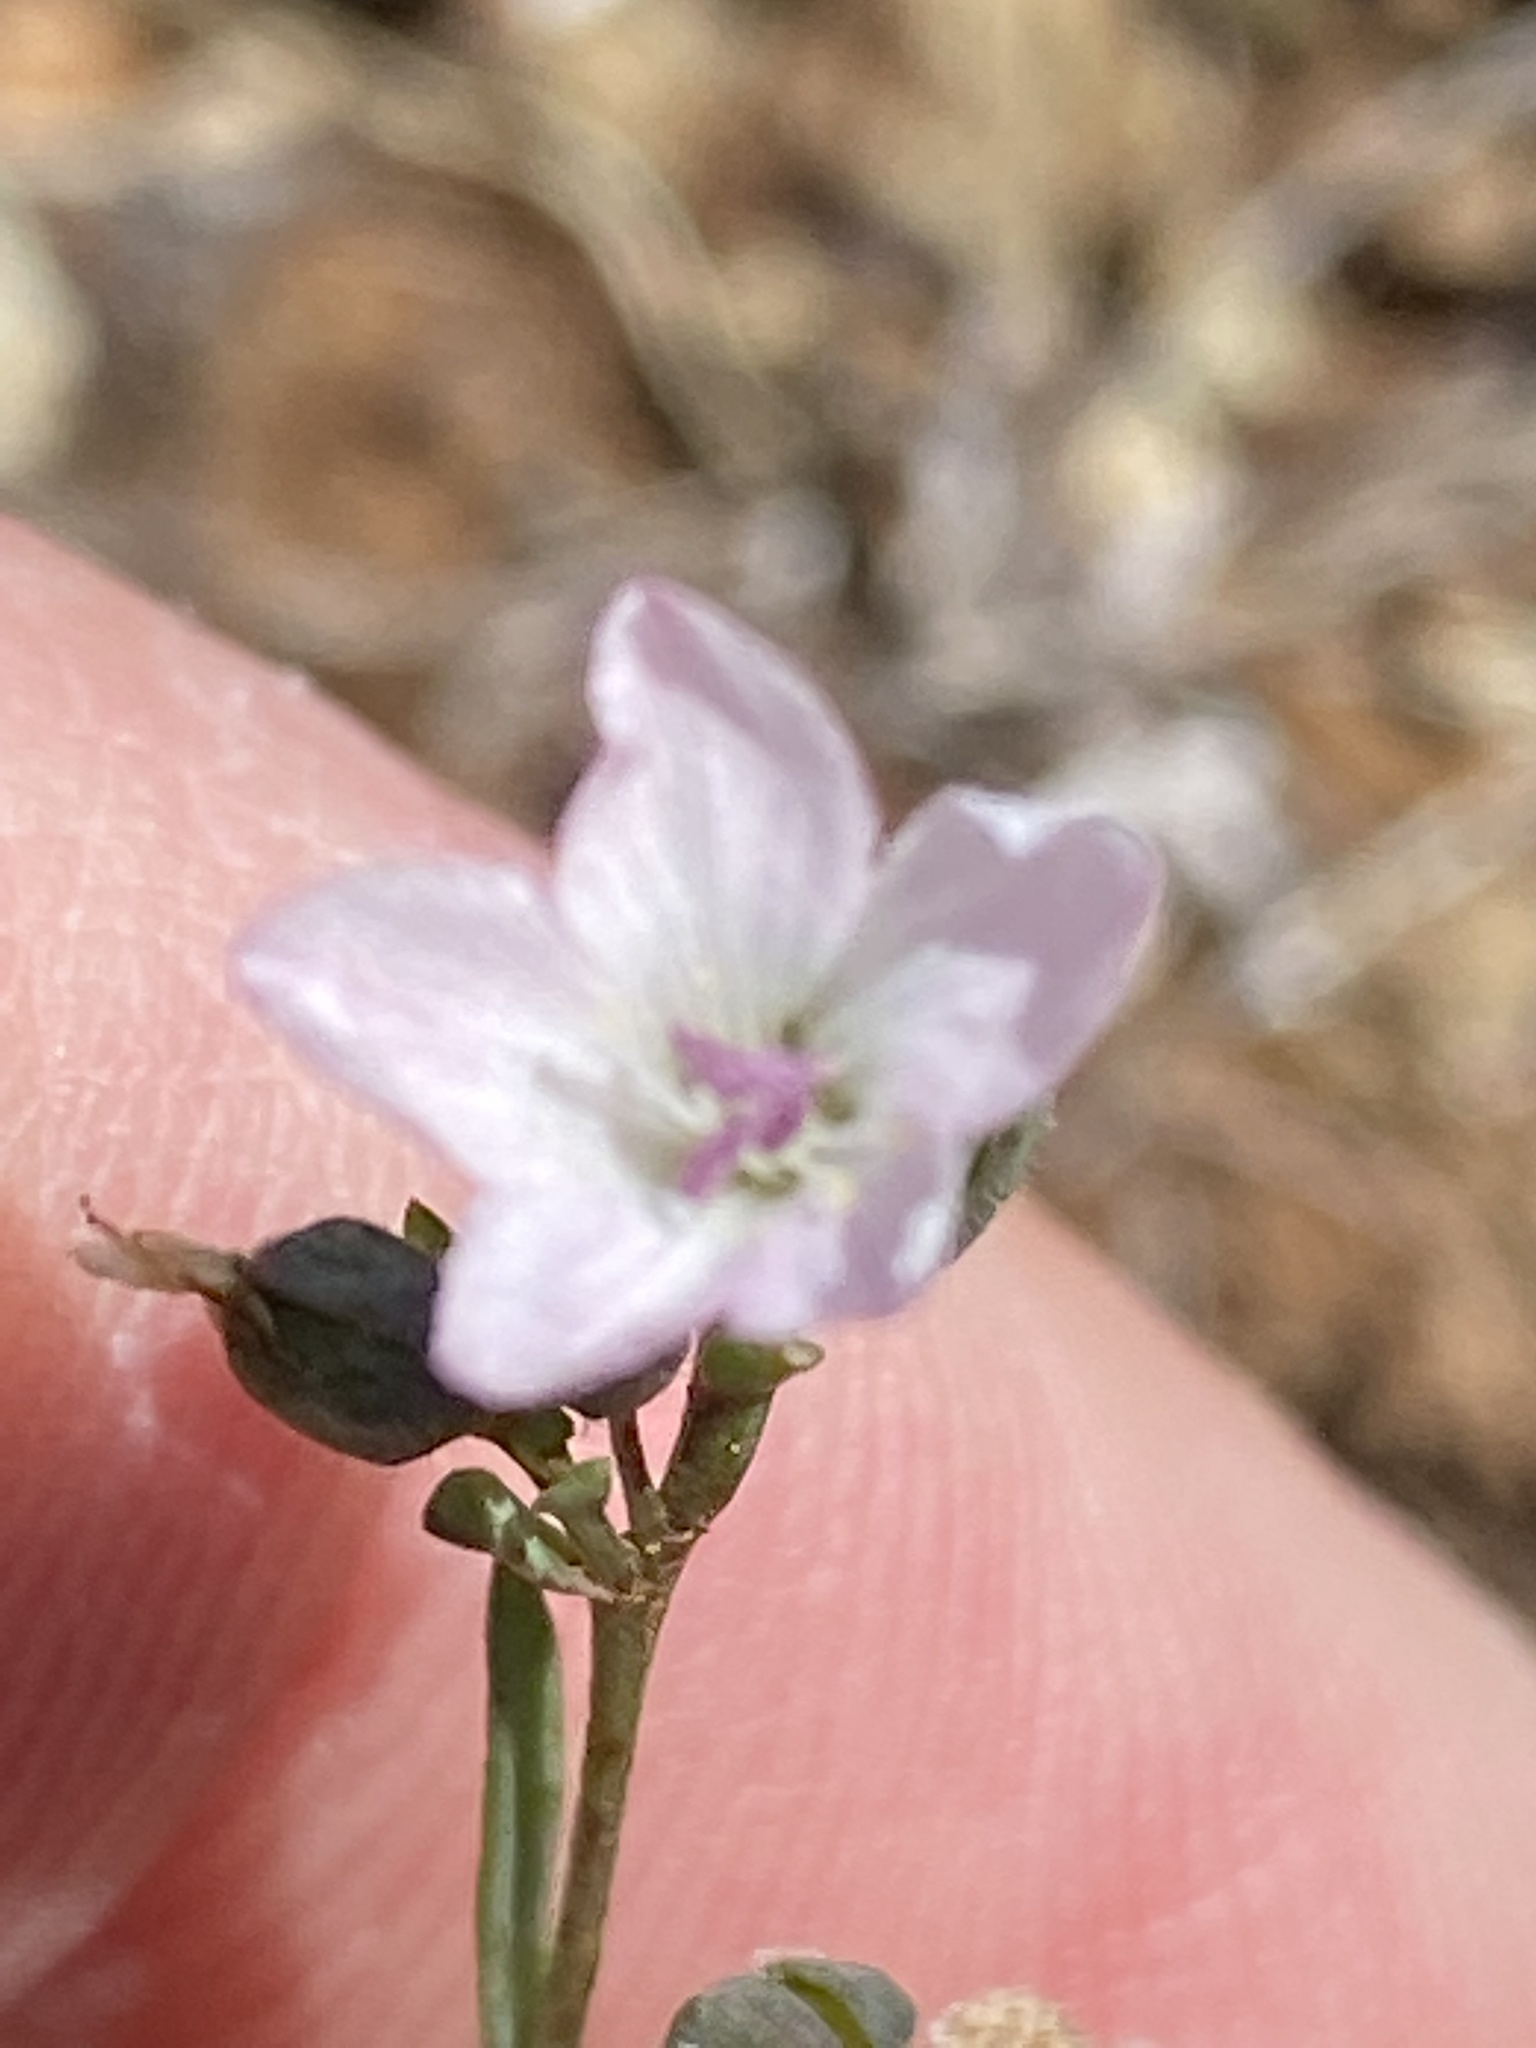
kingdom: Plantae
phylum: Tracheophyta
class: Magnoliopsida
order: Malpighiales
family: Linaceae
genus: Hesperolinon
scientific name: Hesperolinon congestum
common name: Marin dwarf-flax
